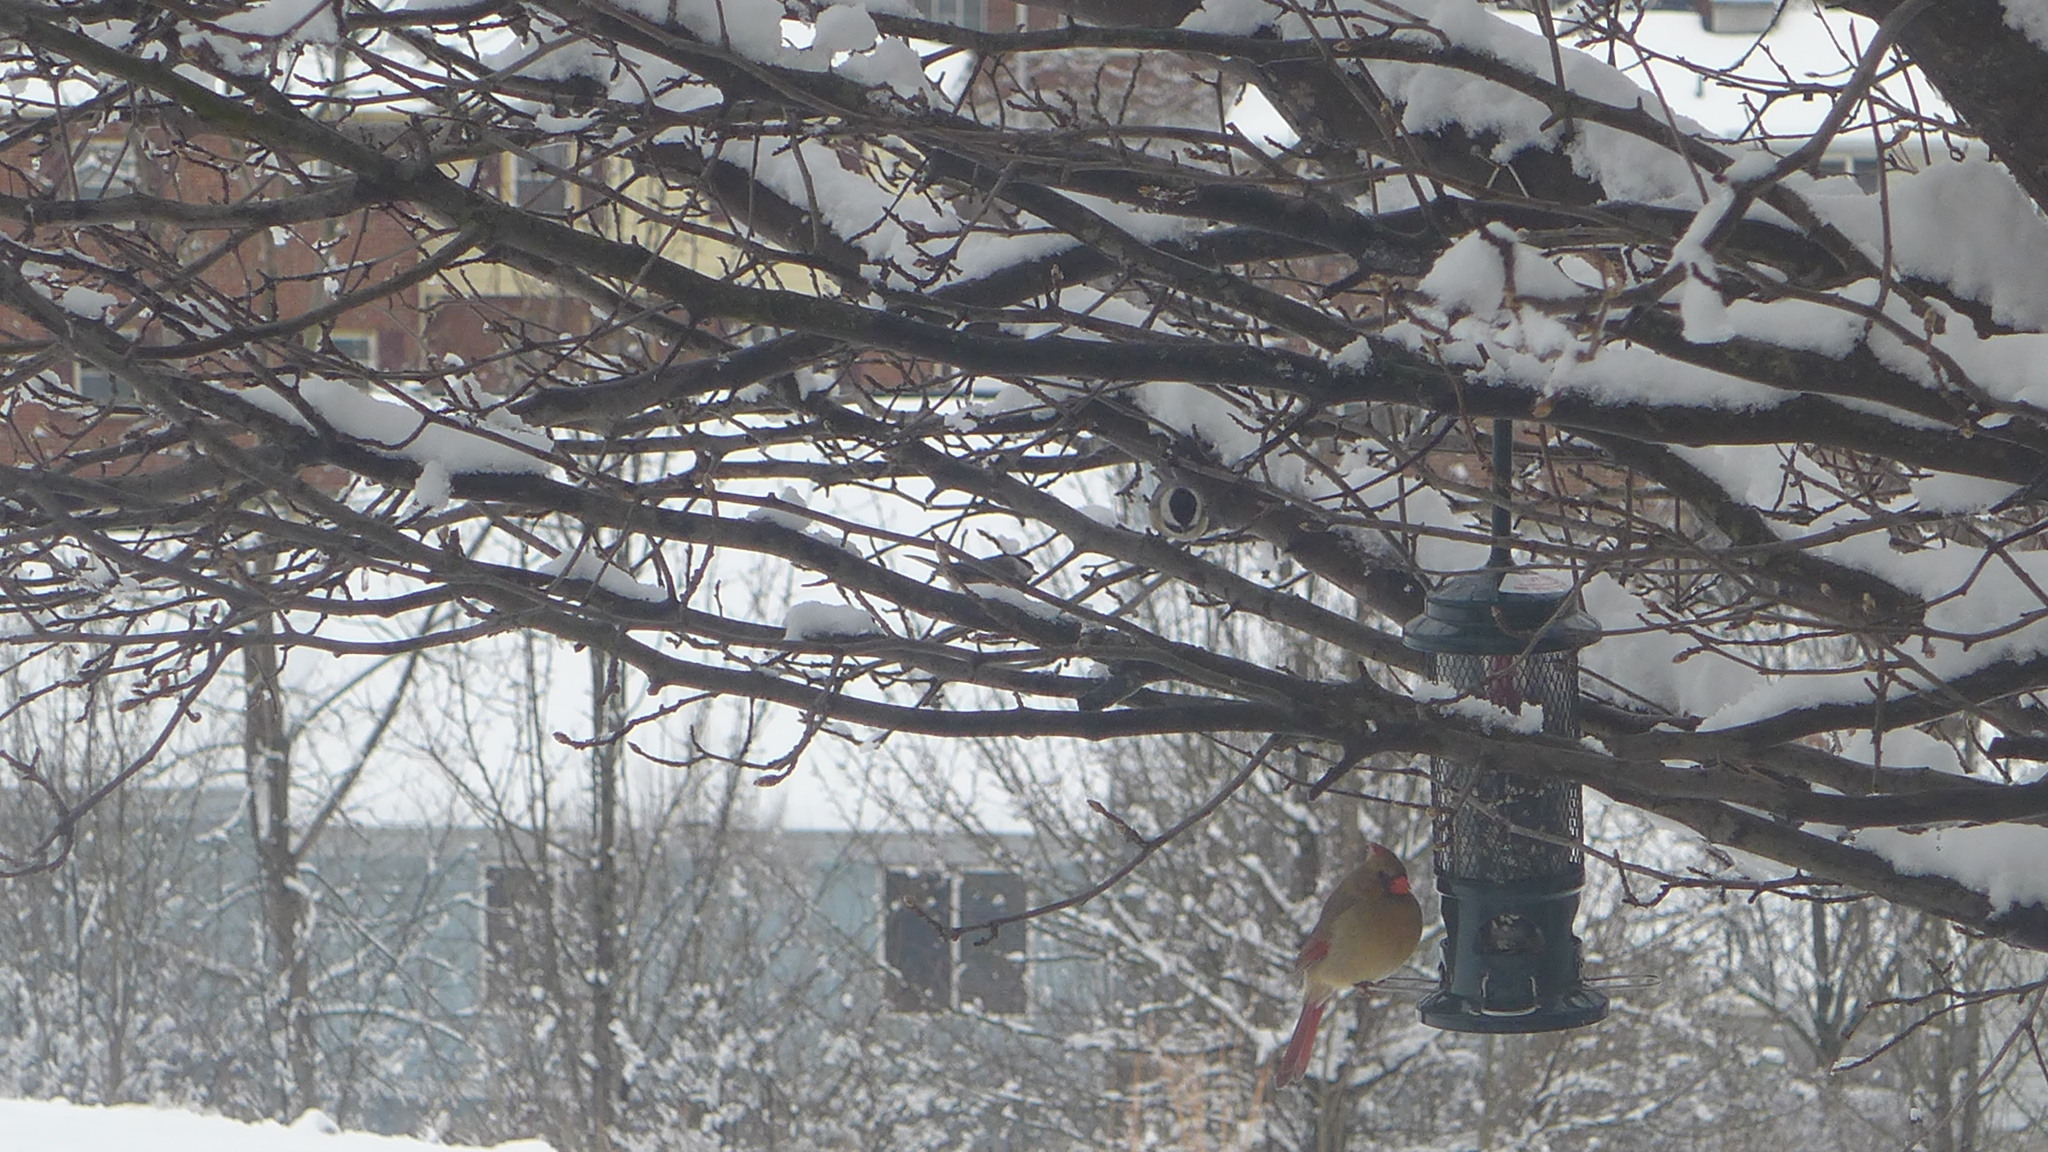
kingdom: Animalia
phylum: Chordata
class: Aves
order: Passeriformes
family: Cardinalidae
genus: Cardinalis
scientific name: Cardinalis cardinalis
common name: Northern cardinal
